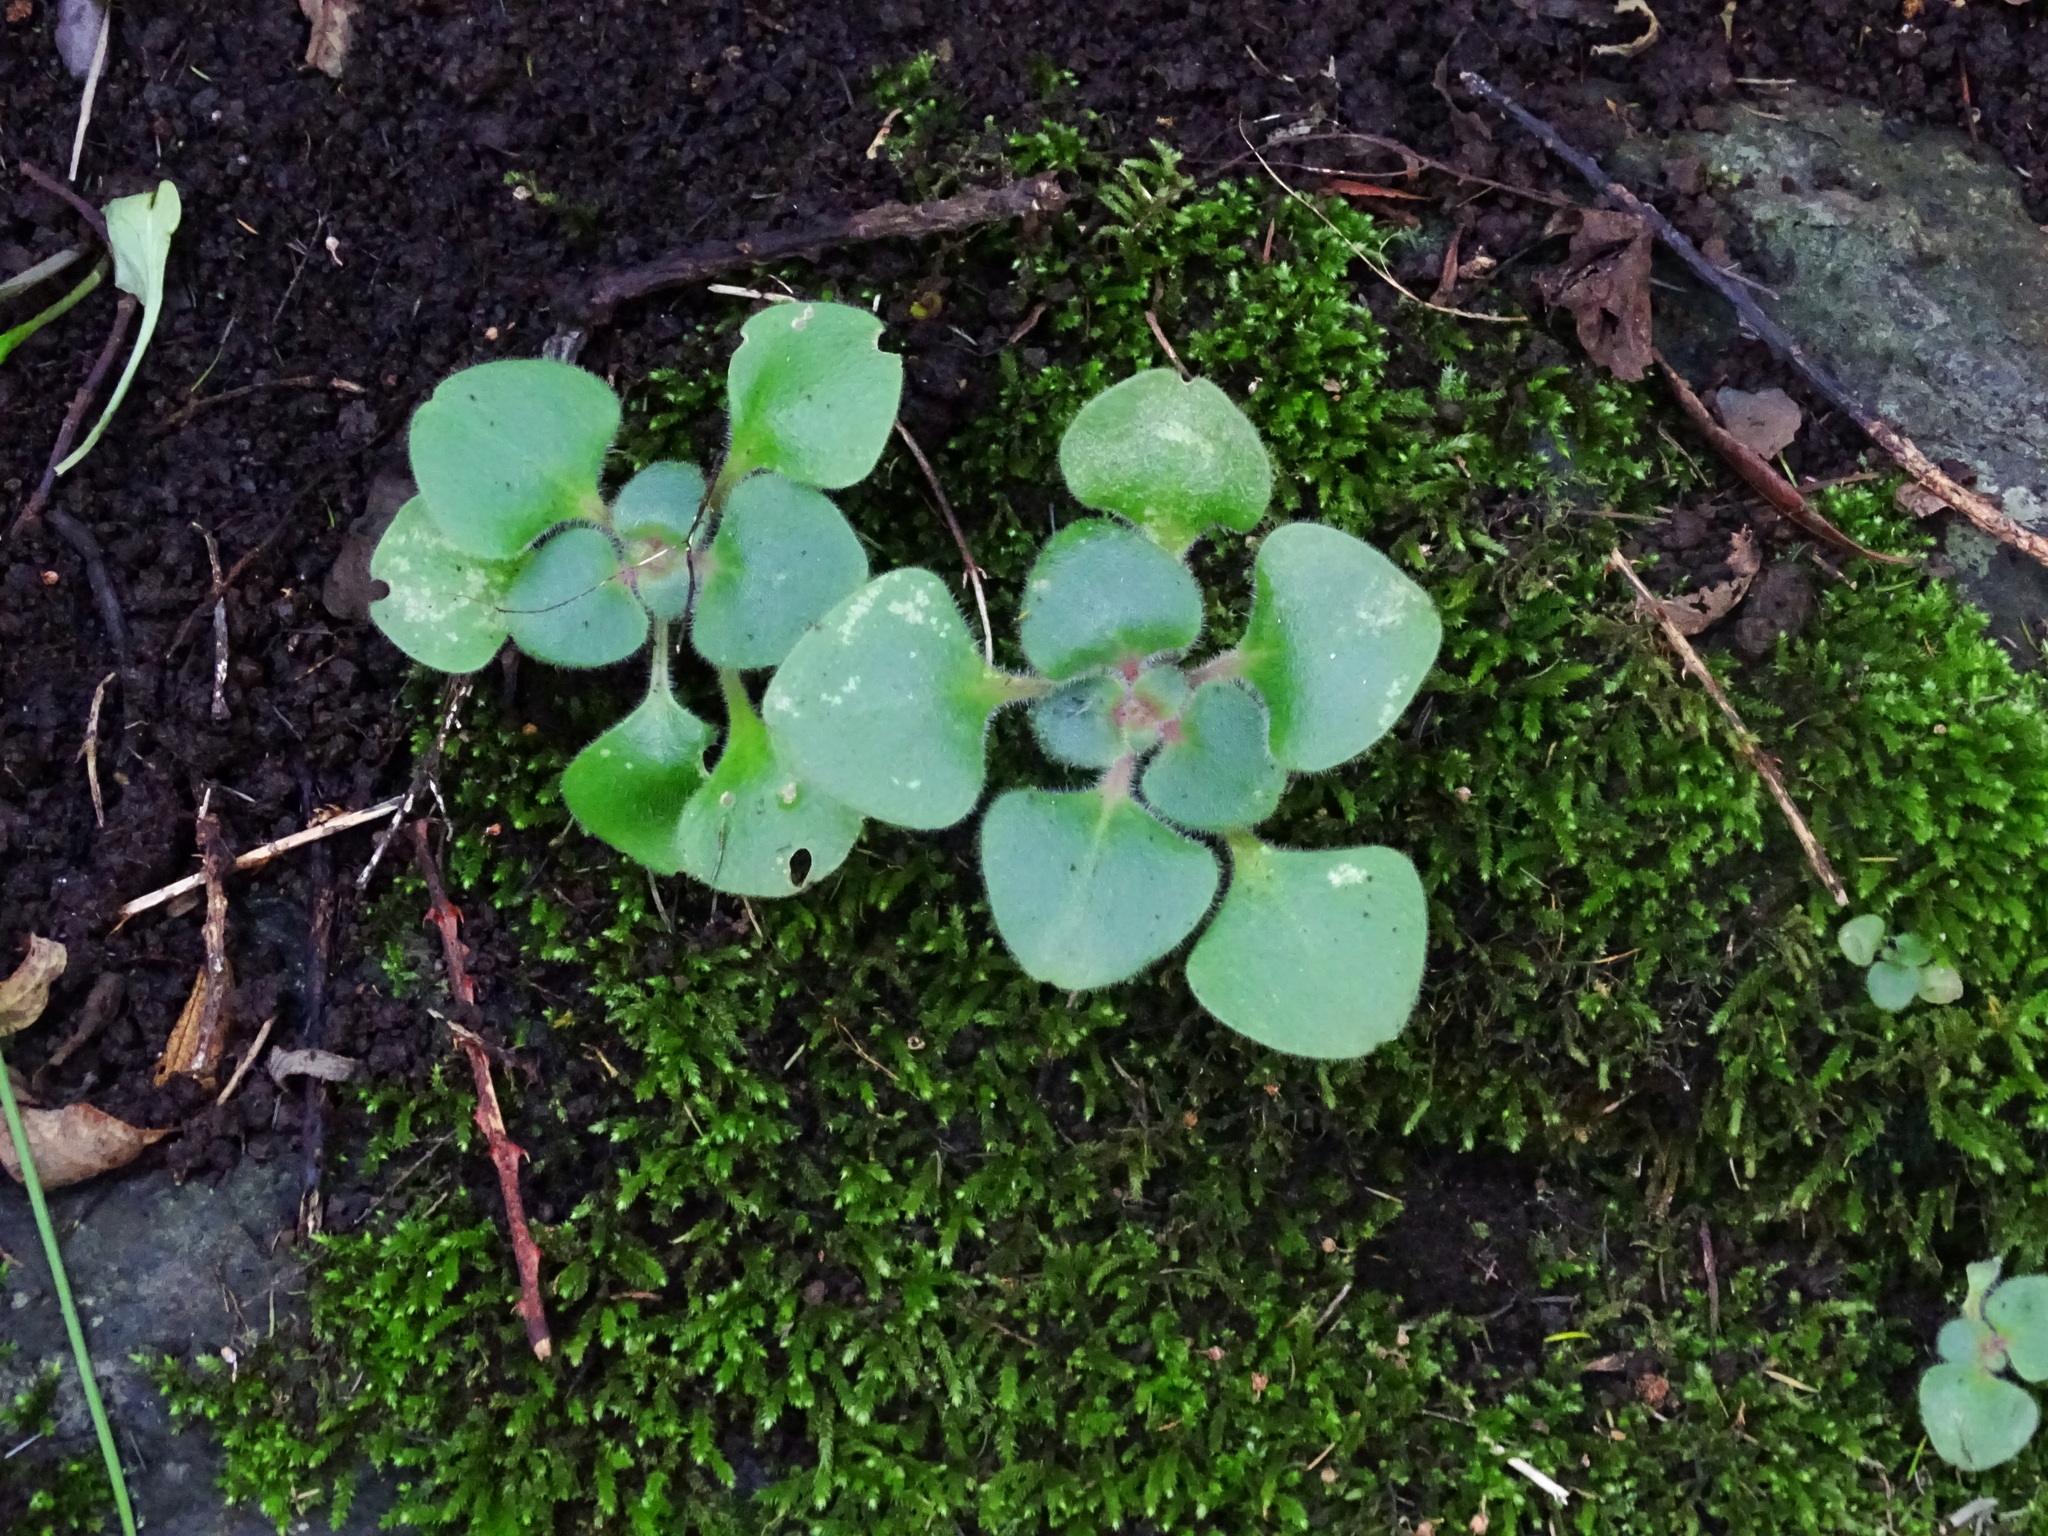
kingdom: Plantae
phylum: Tracheophyta
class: Magnoliopsida
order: Saxifragales
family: Crassulaceae
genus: Aichryson
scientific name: Aichryson laxum
